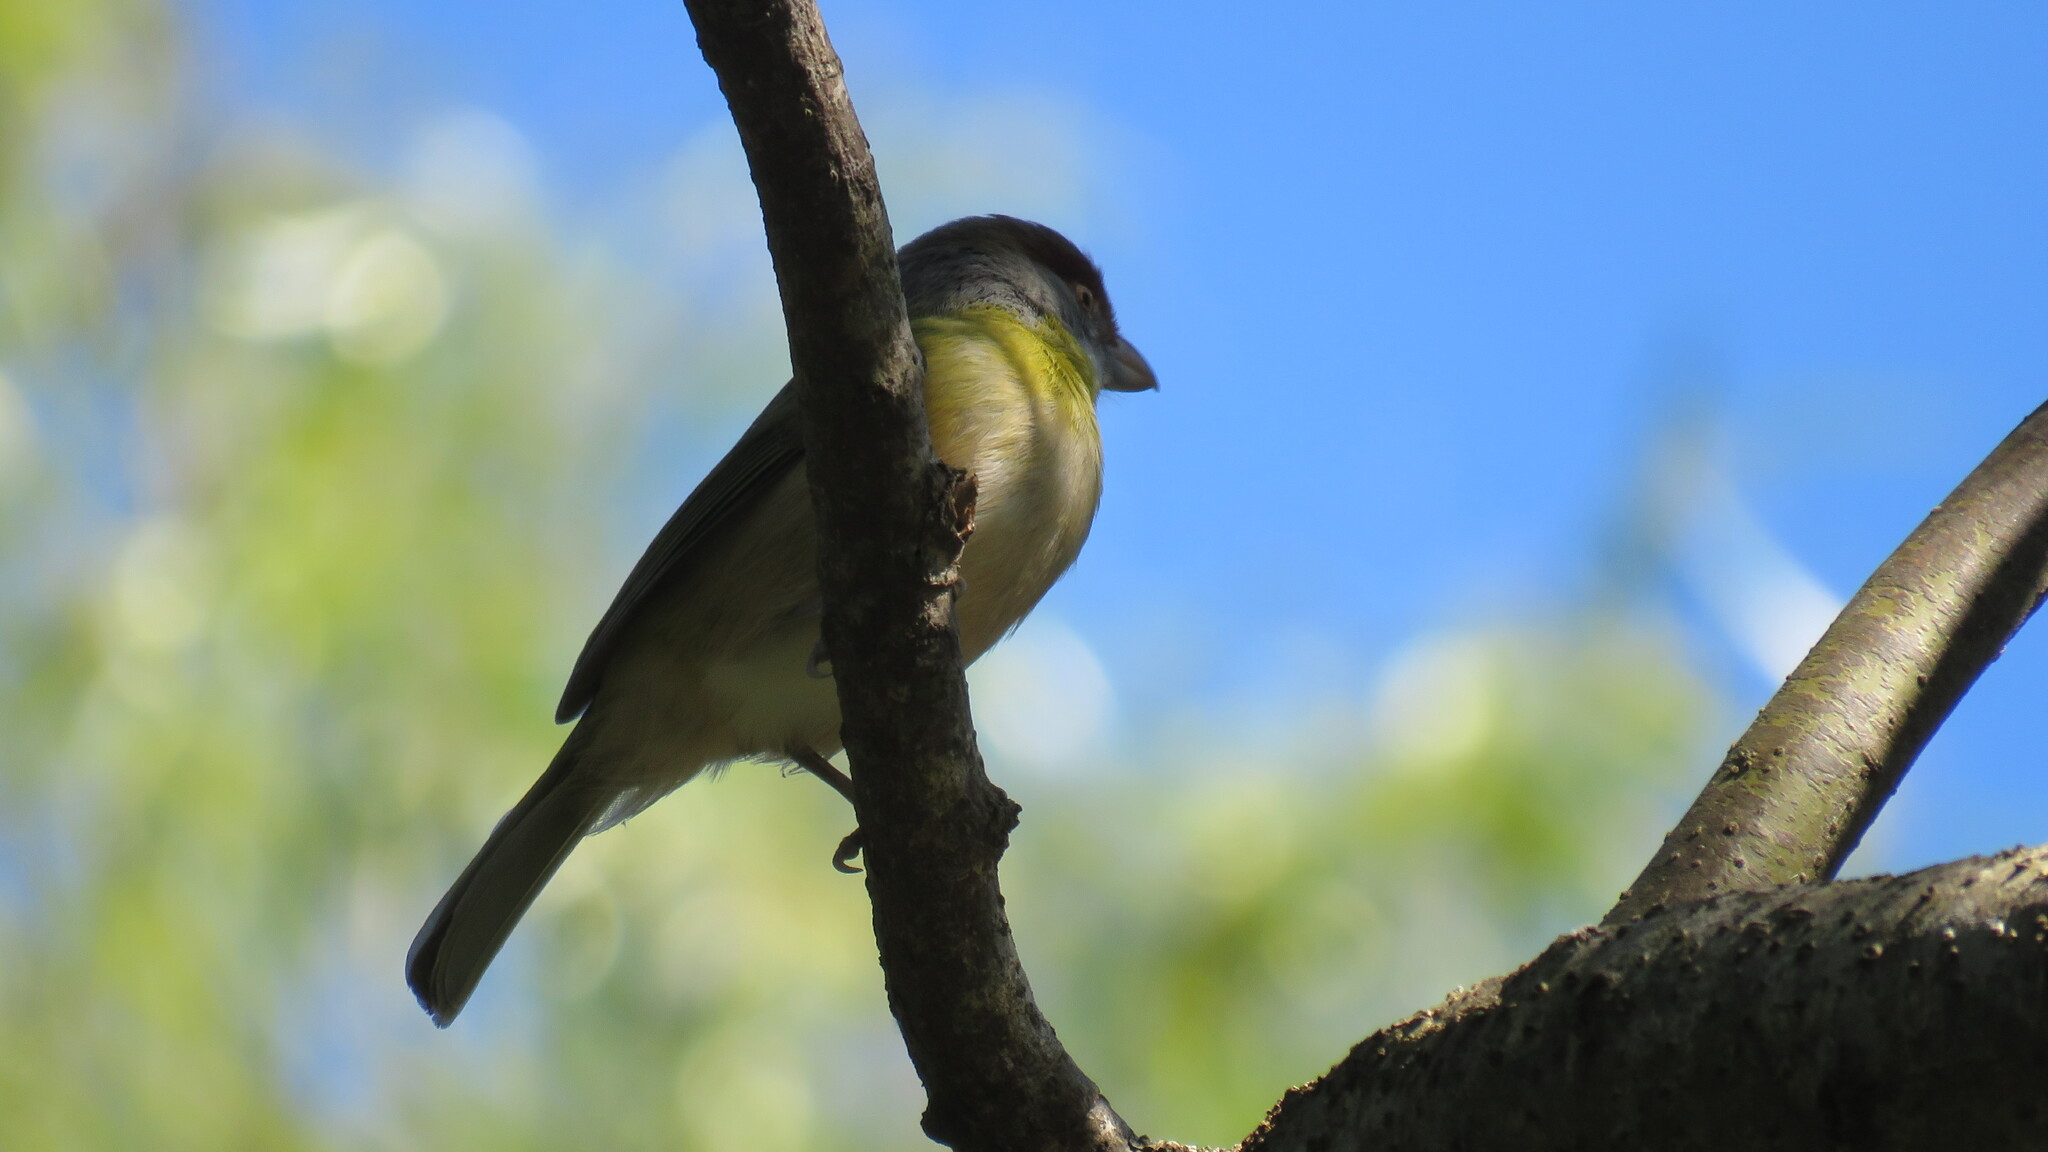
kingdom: Animalia
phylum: Chordata
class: Aves
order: Passeriformes
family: Vireonidae
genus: Cyclarhis
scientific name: Cyclarhis gujanensis
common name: Rufous-browed peppershrike
